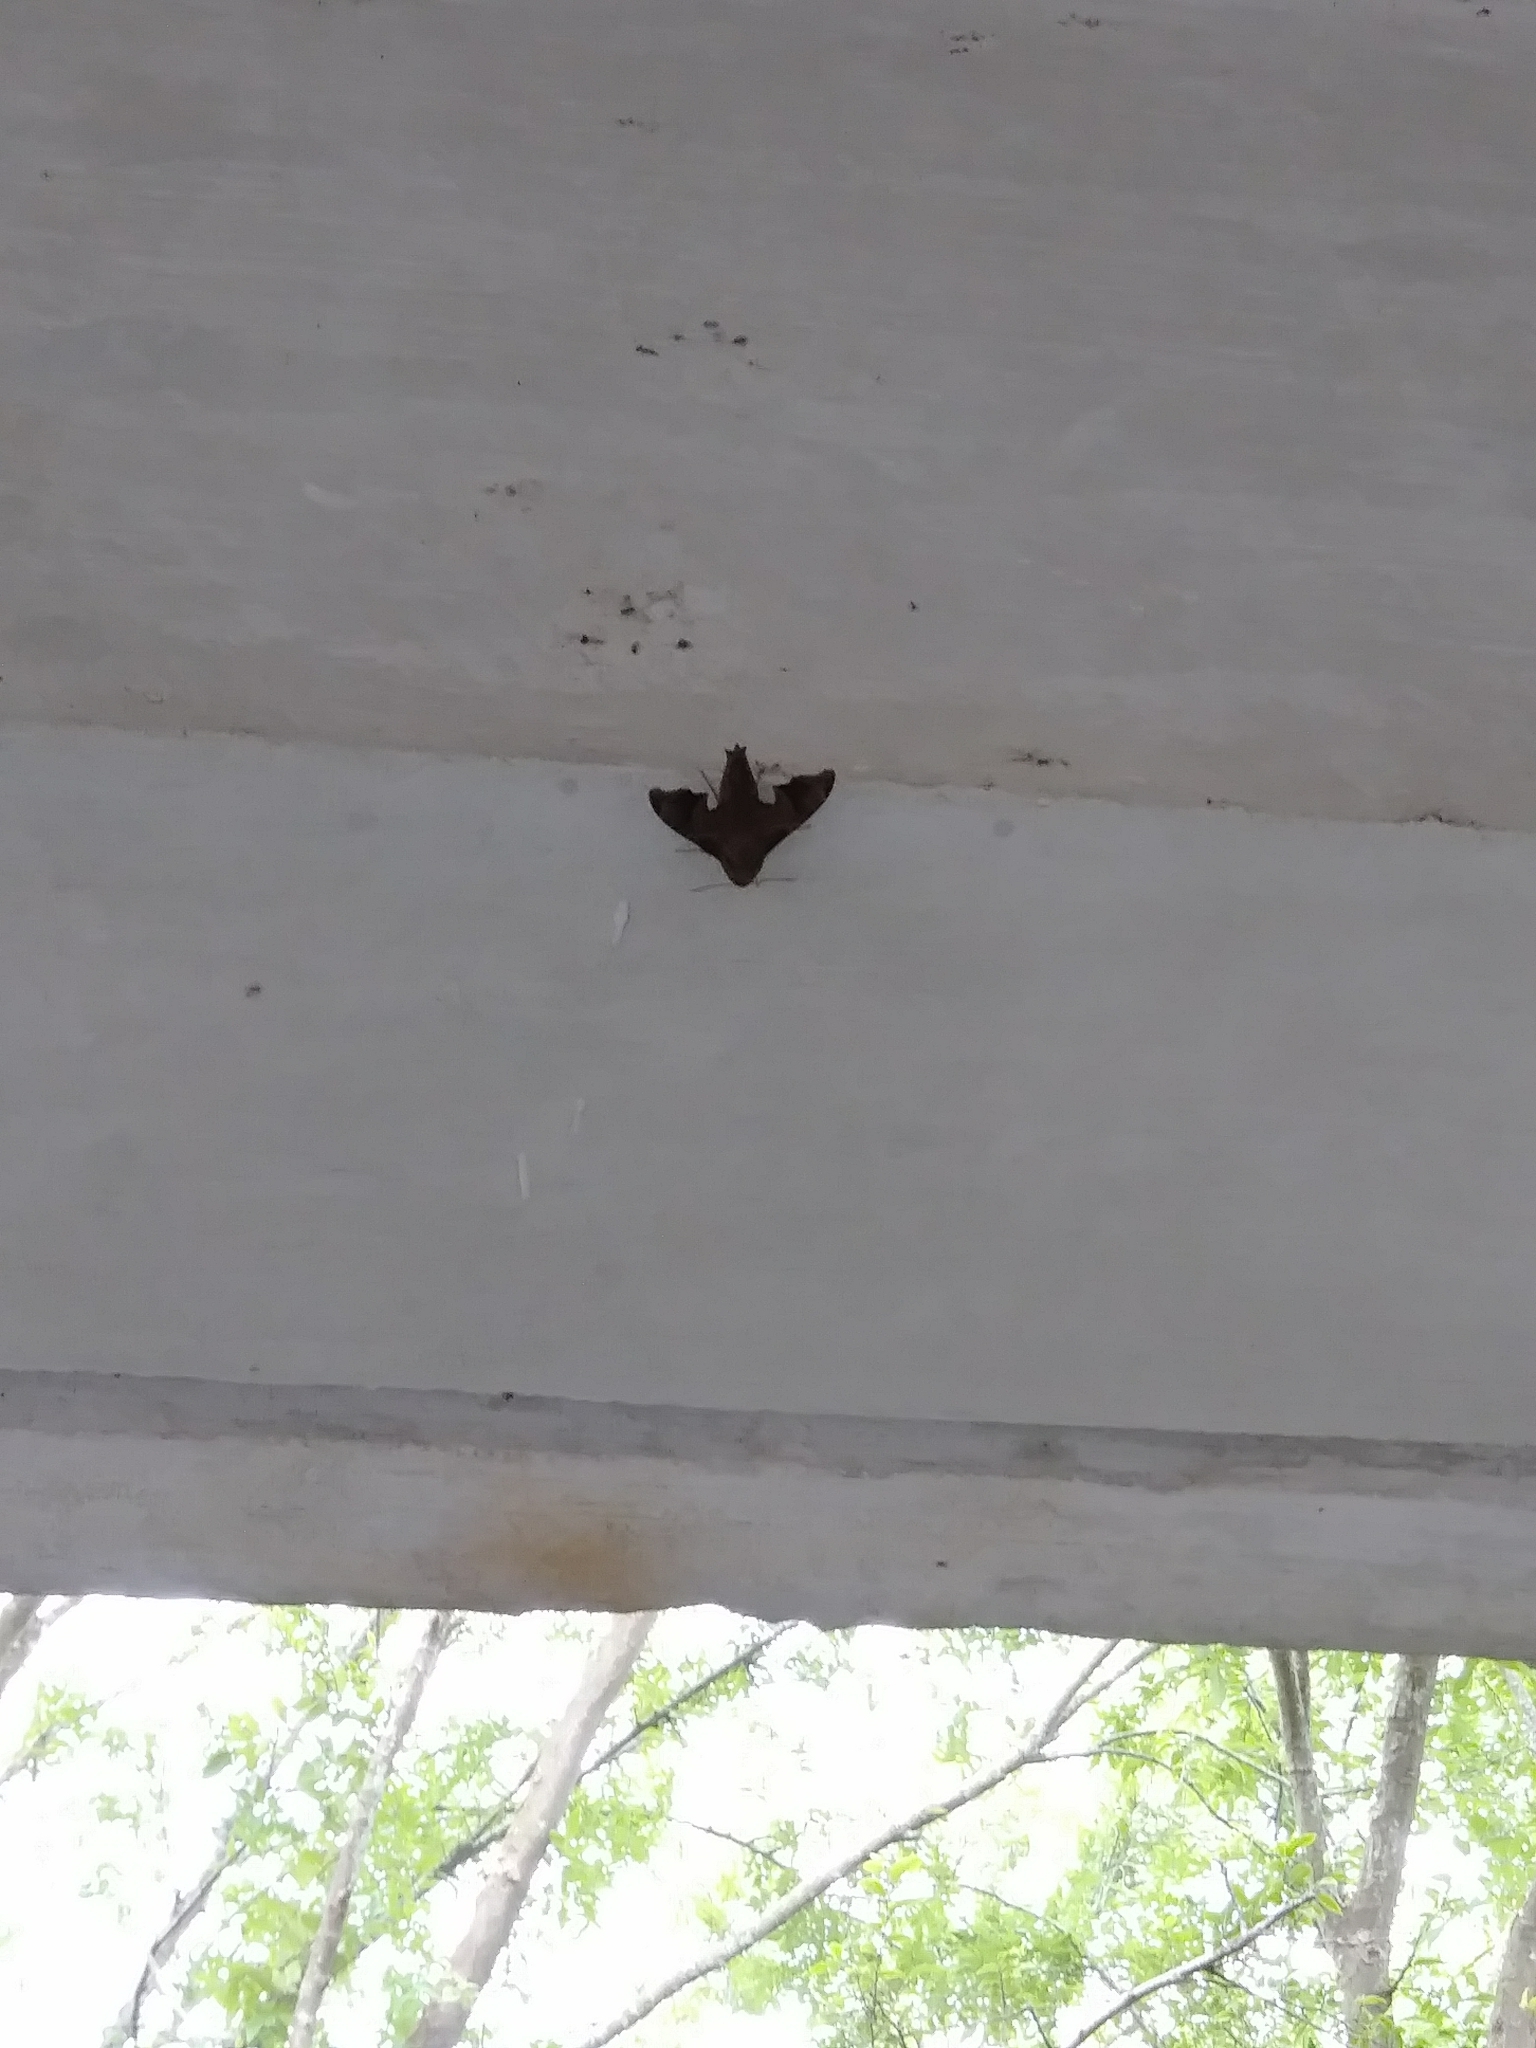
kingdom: Animalia
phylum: Arthropoda
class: Insecta
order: Lepidoptera
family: Sphingidae
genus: Enyo
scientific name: Enyo lugubris
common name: Mournful sphinx
